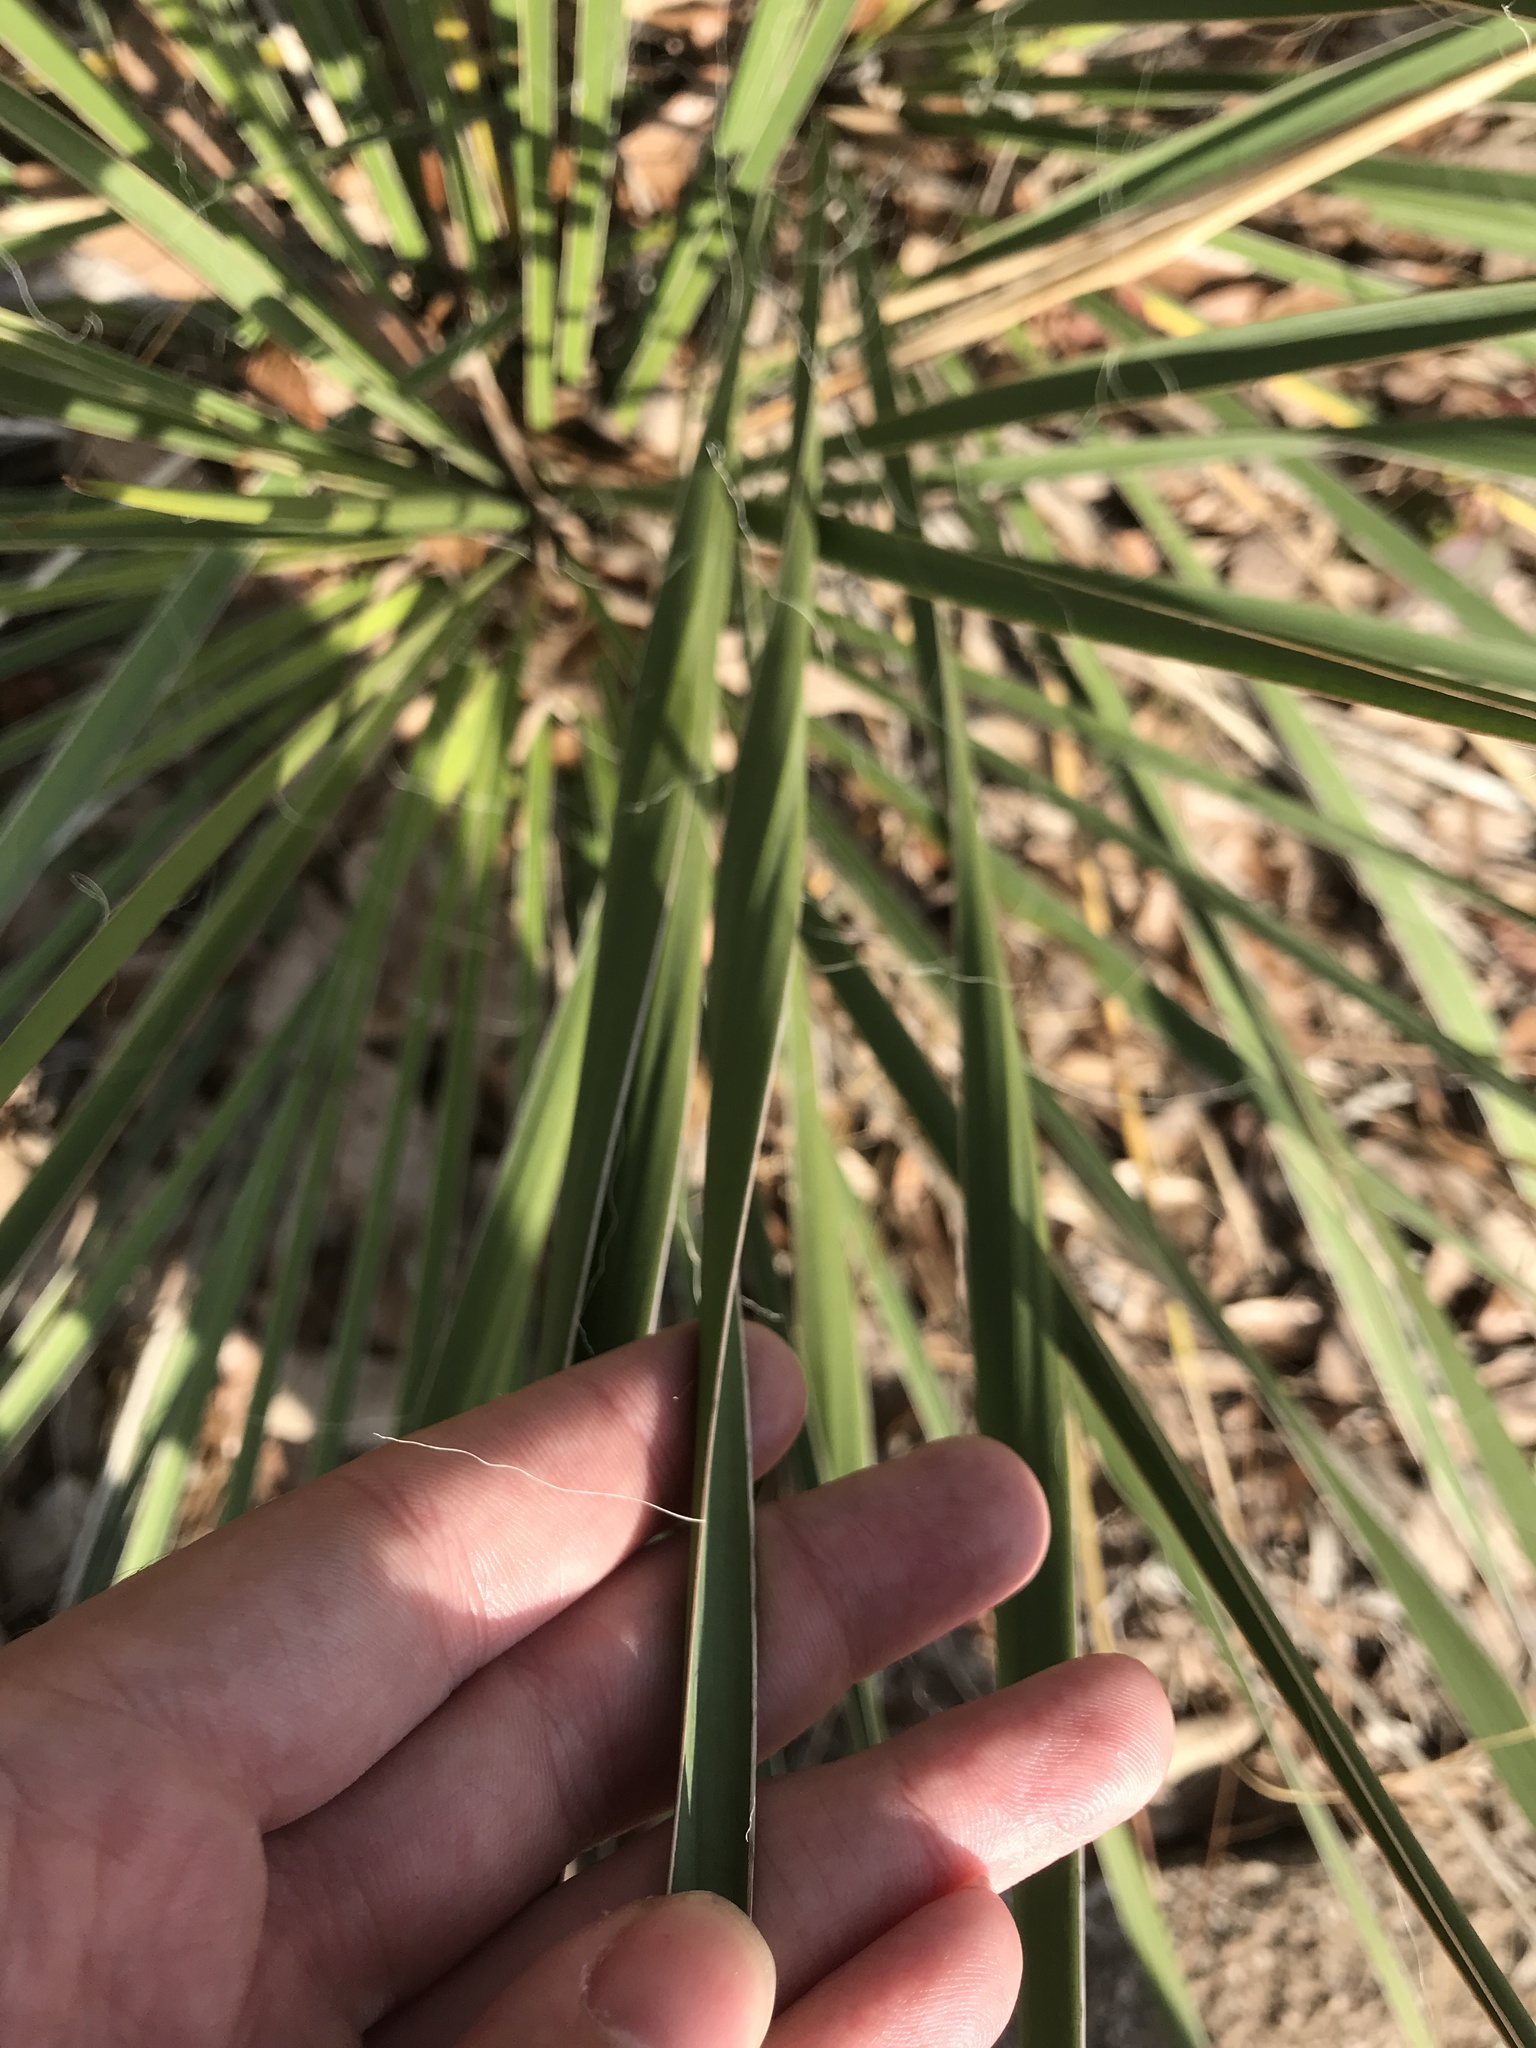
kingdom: Plantae
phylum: Tracheophyta
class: Liliopsida
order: Asparagales
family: Asparagaceae
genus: Yucca
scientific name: Yucca flaccida
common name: Adam's-needle
